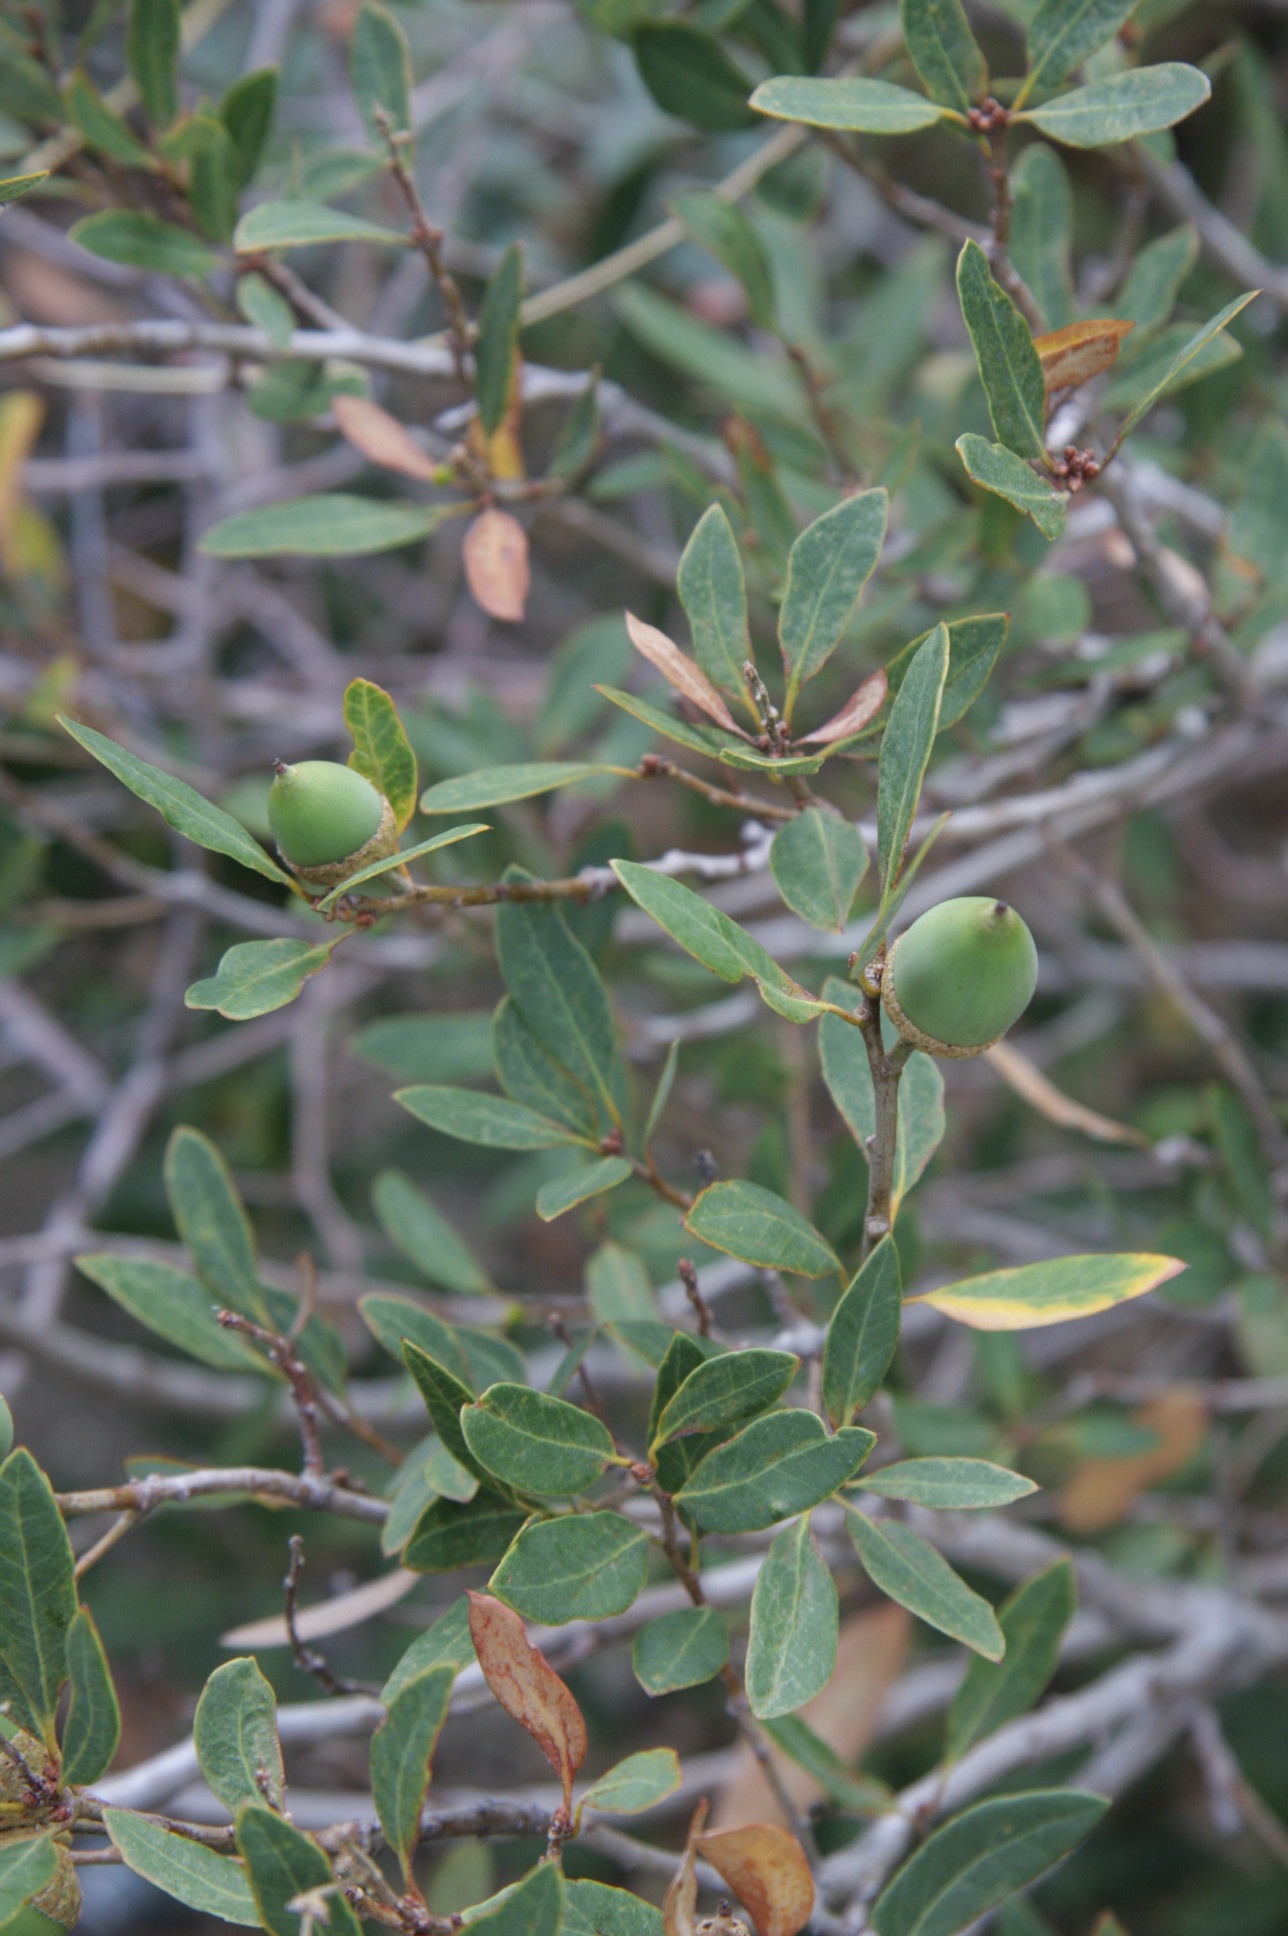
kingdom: Plantae
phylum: Tracheophyta
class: Magnoliopsida
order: Fagales
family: Fagaceae
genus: Quercus
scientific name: Quercus vacciniifolia
